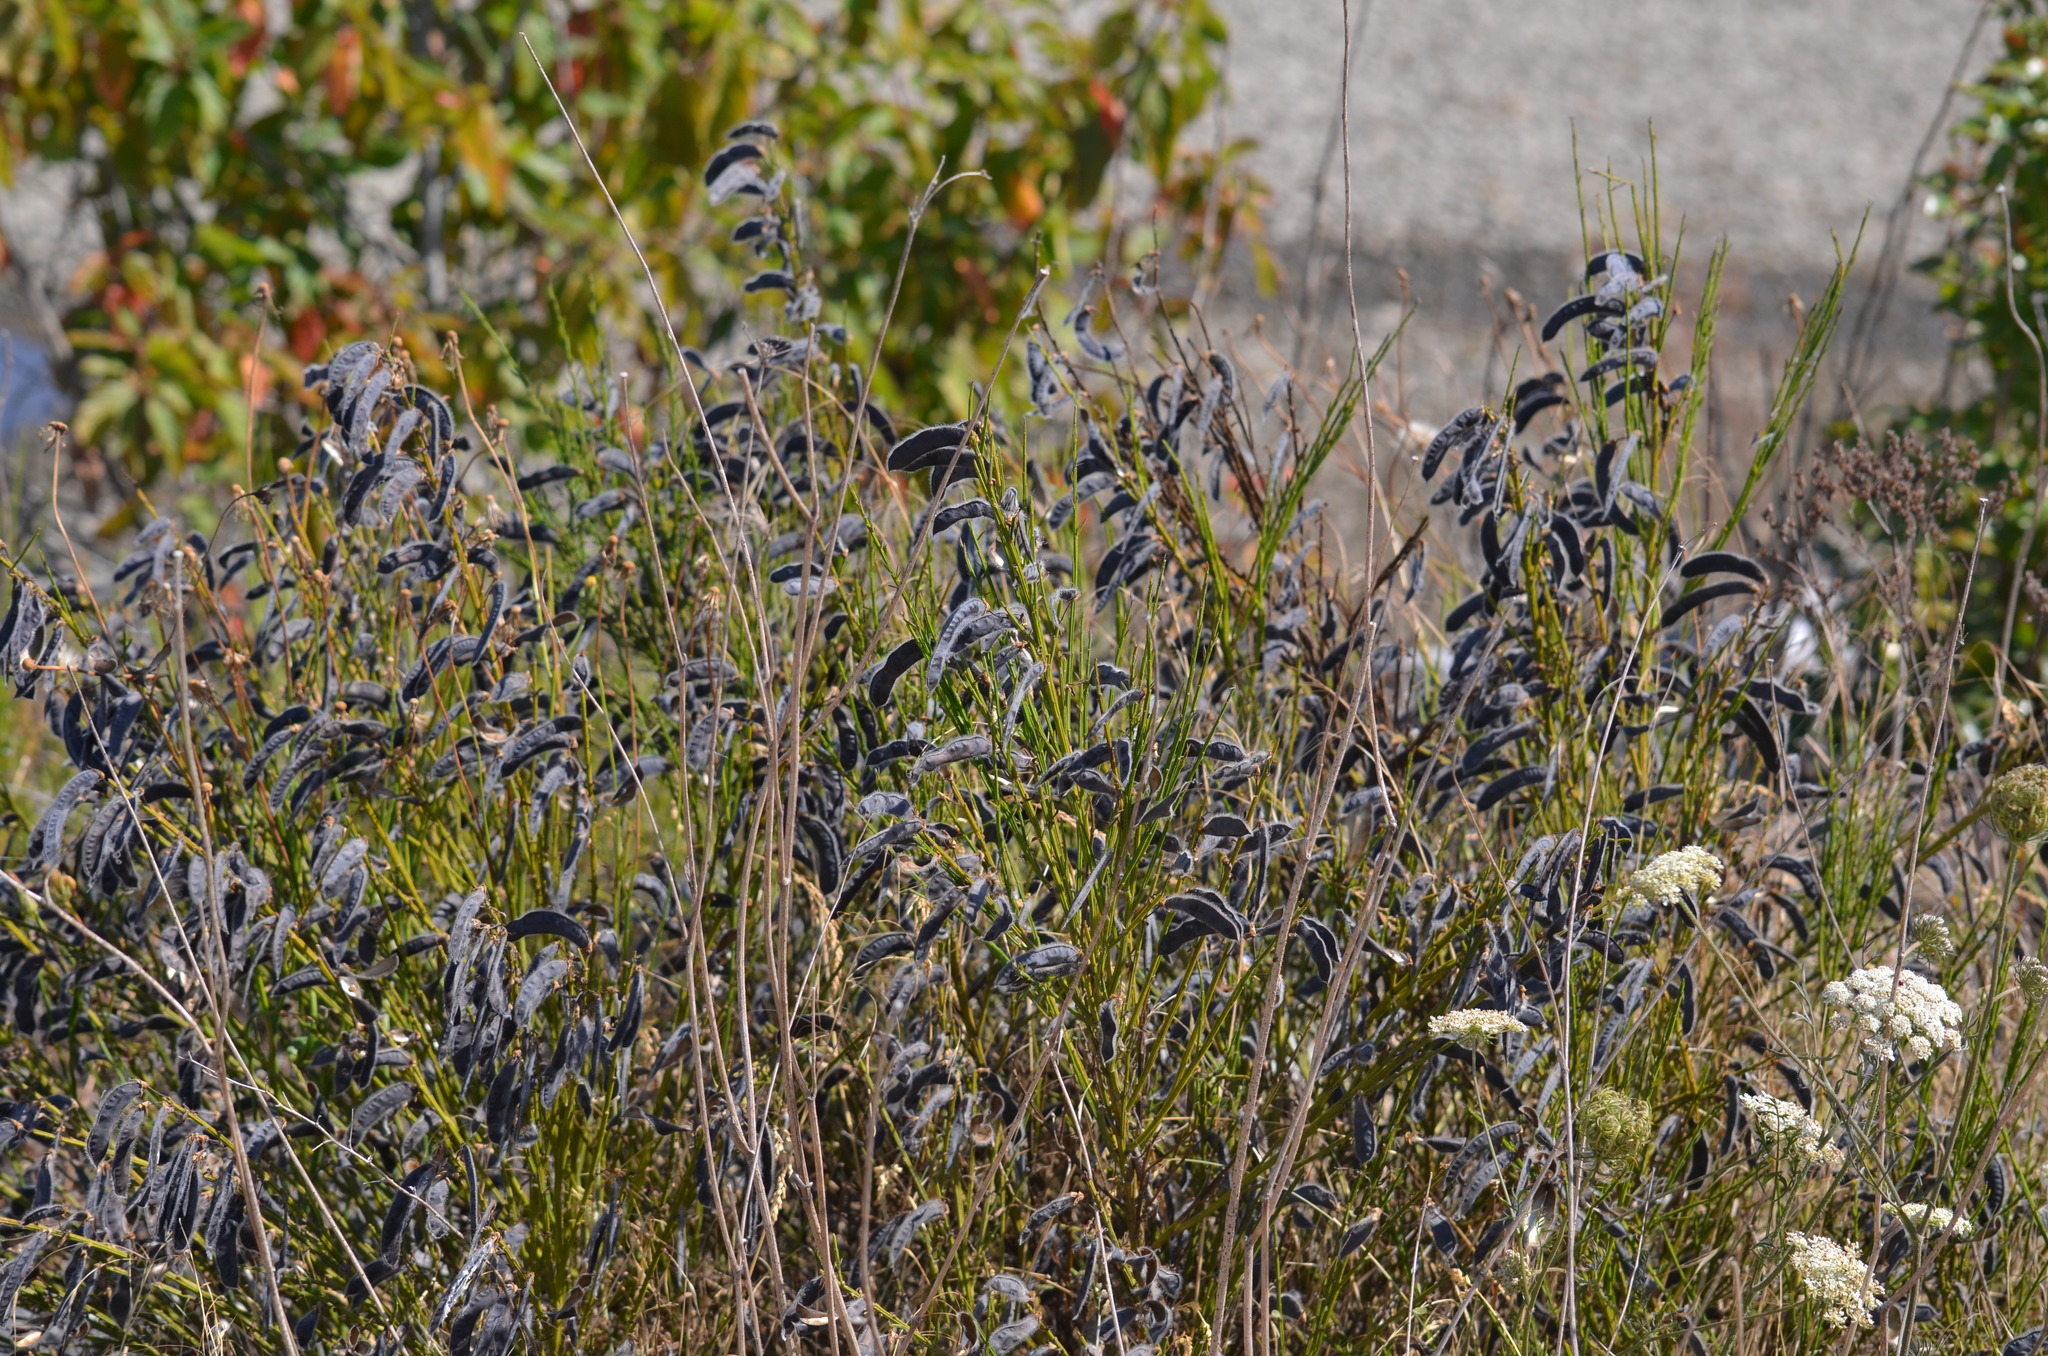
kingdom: Plantae
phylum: Tracheophyta
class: Magnoliopsida
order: Fabales
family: Fabaceae
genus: Cytisus
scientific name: Cytisus scoparius
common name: Scotch broom
